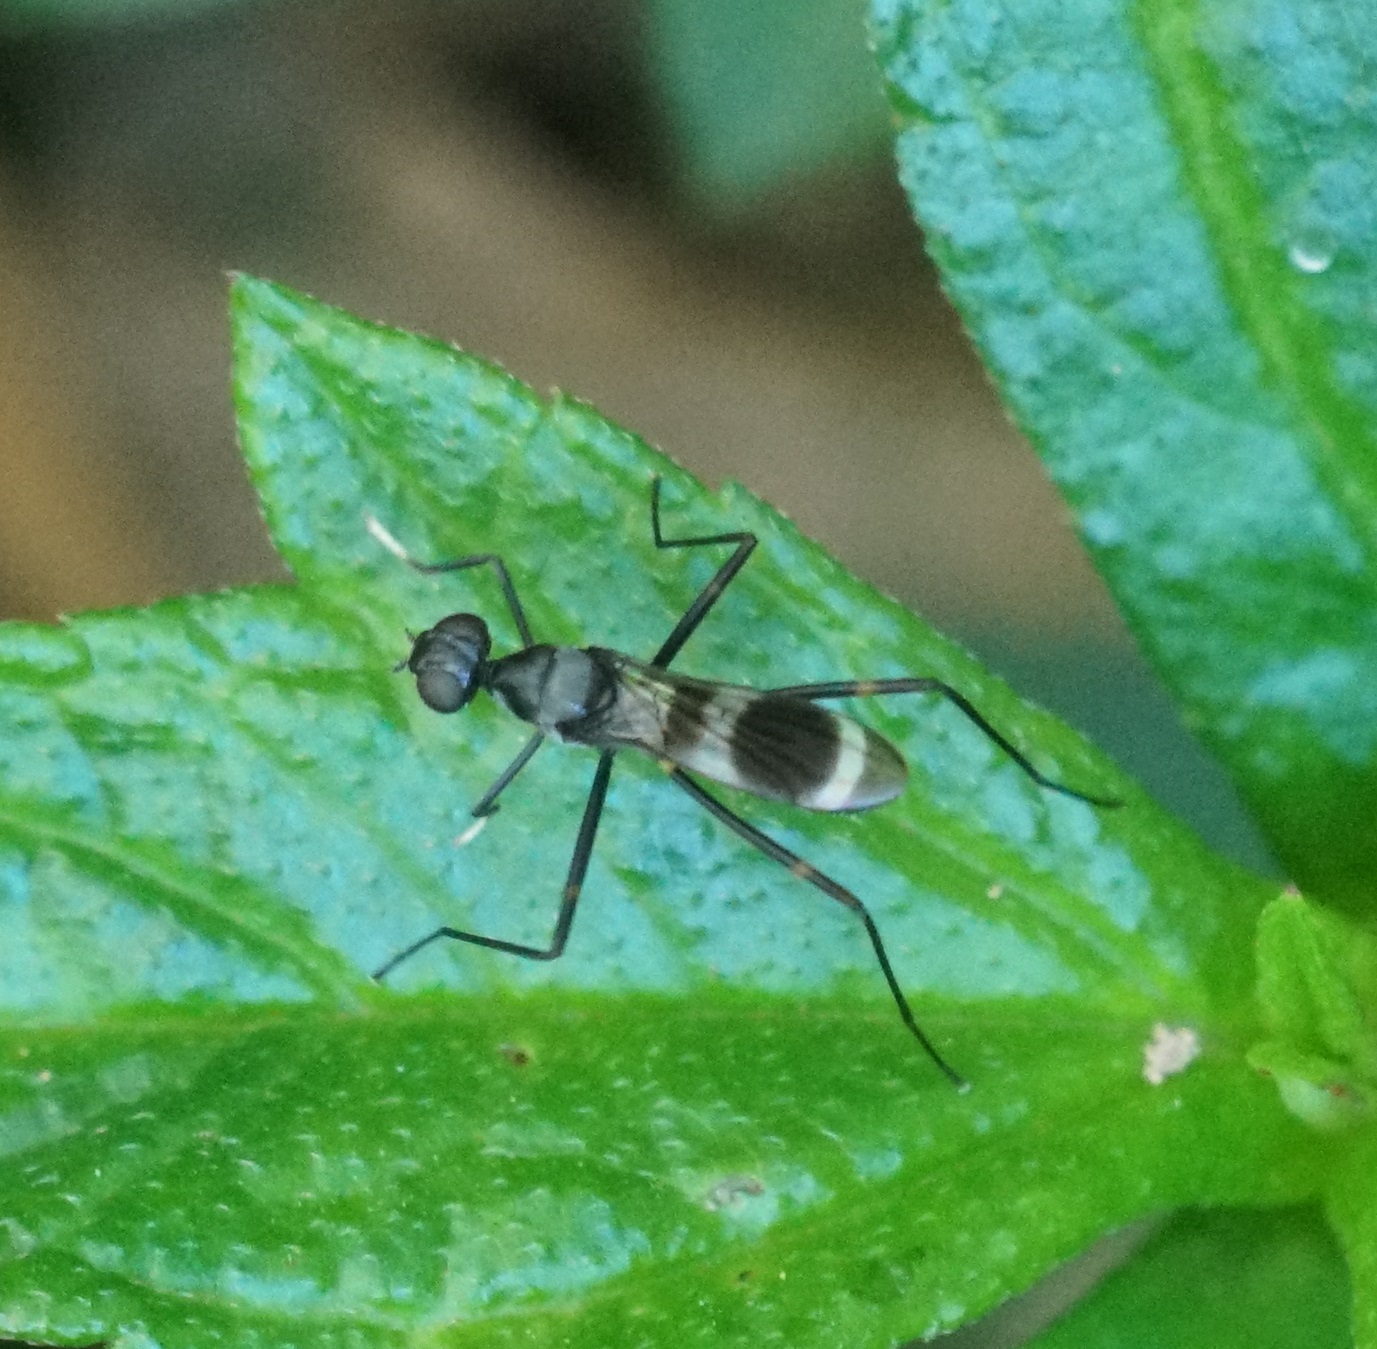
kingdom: Animalia
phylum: Arthropoda
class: Insecta
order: Diptera
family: Micropezidae
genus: Mimegralla
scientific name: Mimegralla australica
